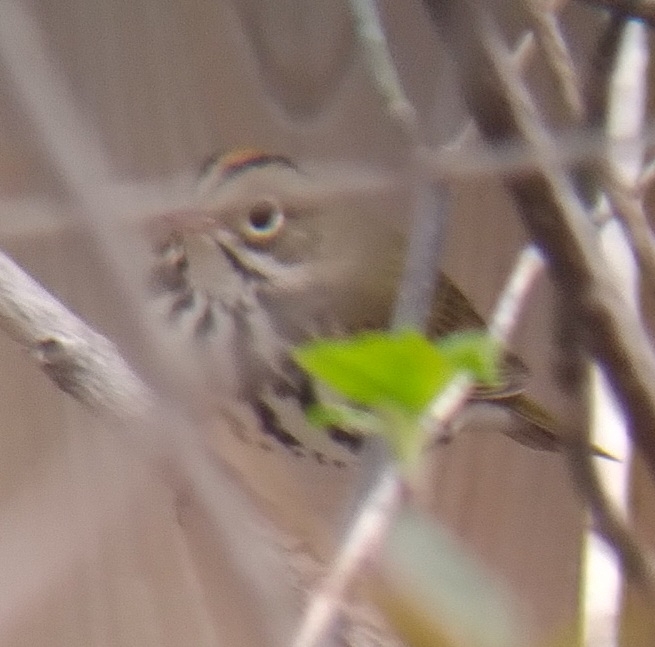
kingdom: Animalia
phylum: Chordata
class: Aves
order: Passeriformes
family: Parulidae
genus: Seiurus
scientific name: Seiurus aurocapilla
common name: Ovenbird
